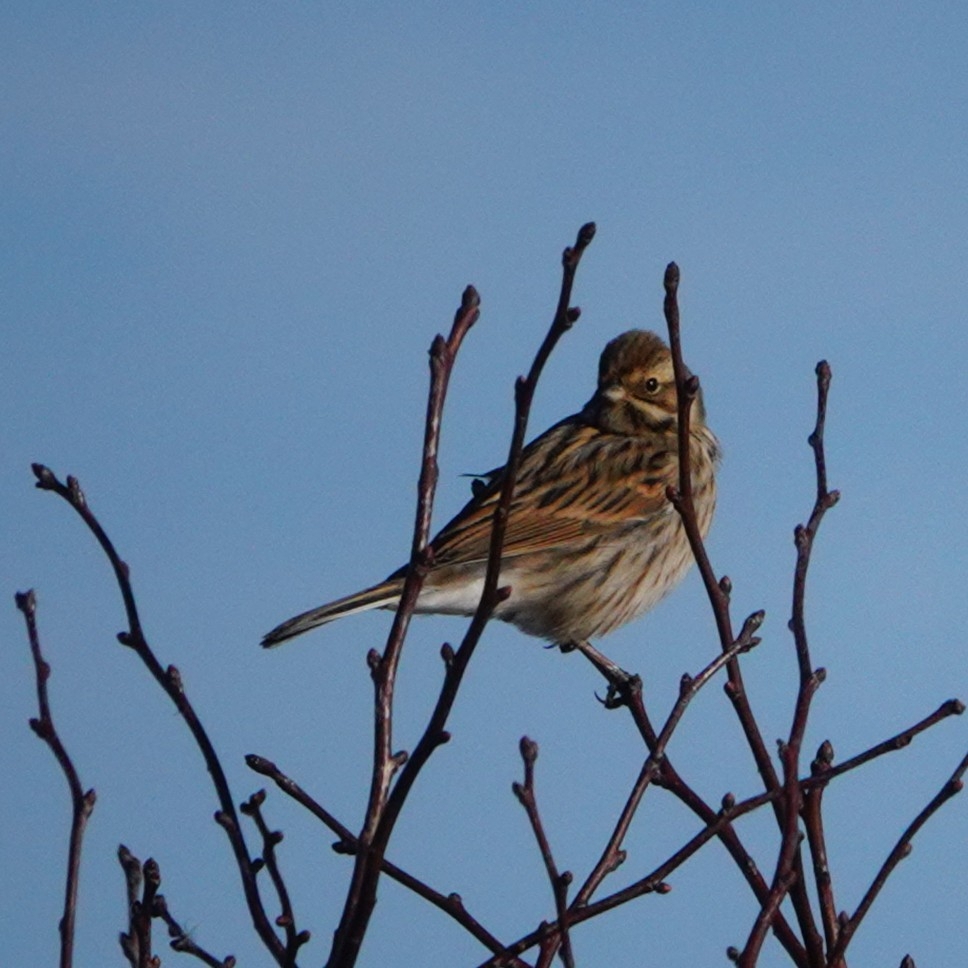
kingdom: Animalia
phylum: Chordata
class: Aves
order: Passeriformes
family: Emberizidae
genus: Emberiza
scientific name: Emberiza schoeniclus
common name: Reed bunting
